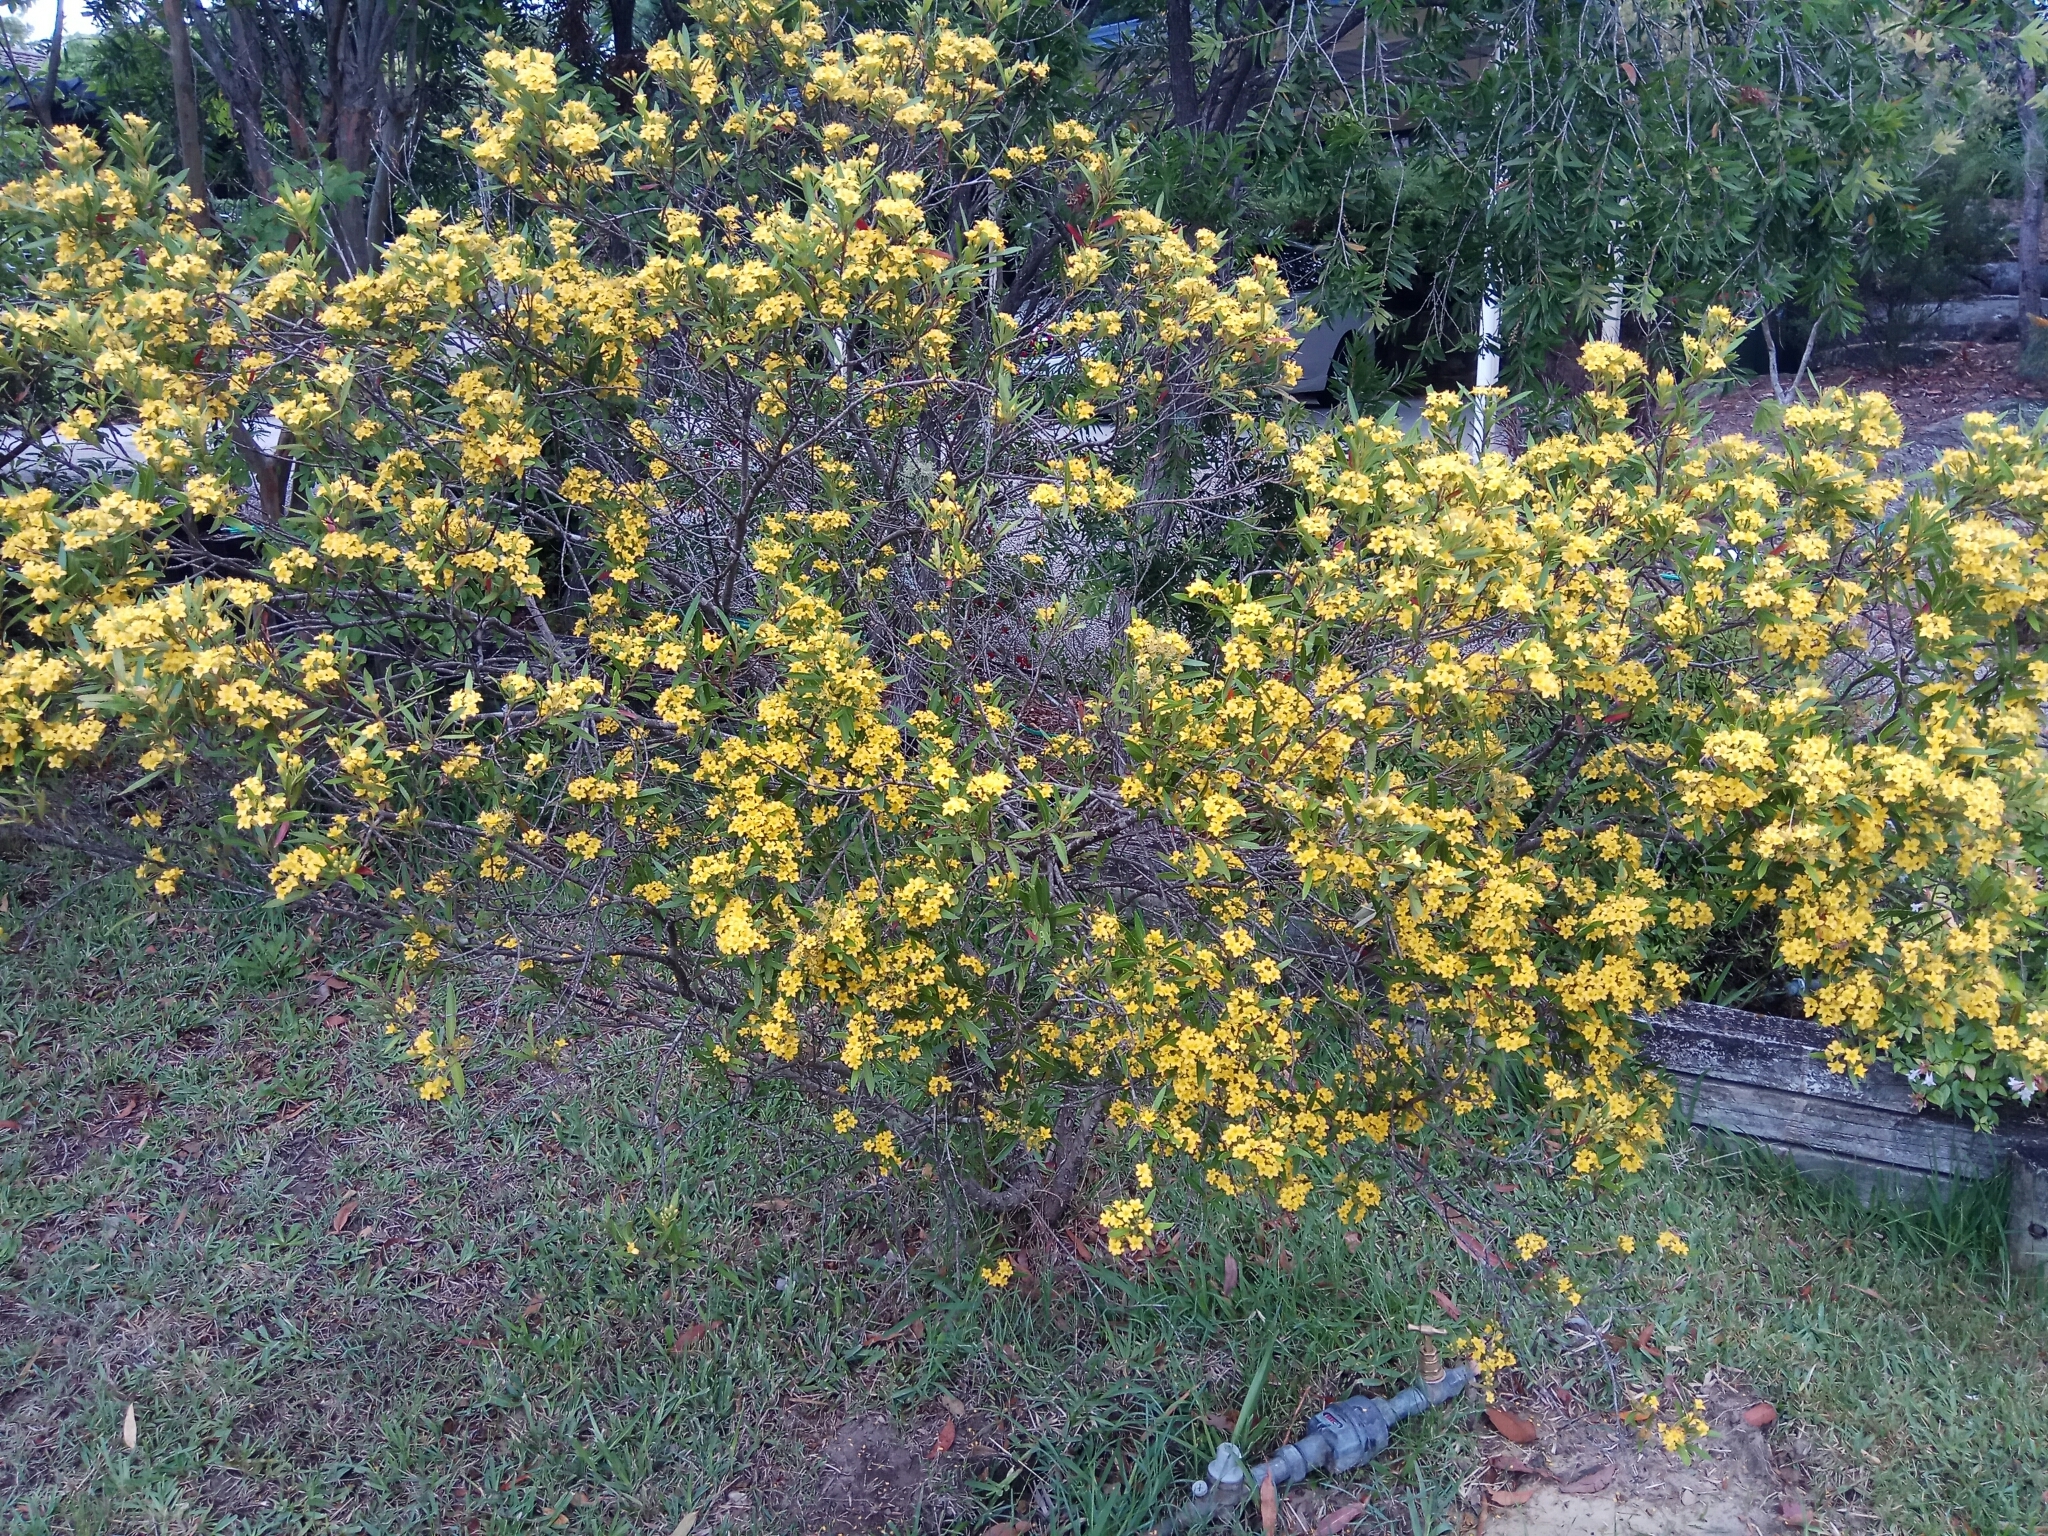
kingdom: Plantae
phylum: Tracheophyta
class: Magnoliopsida
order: Myrtales
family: Myrtaceae
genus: Tristania
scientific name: Tristania neriifolia
